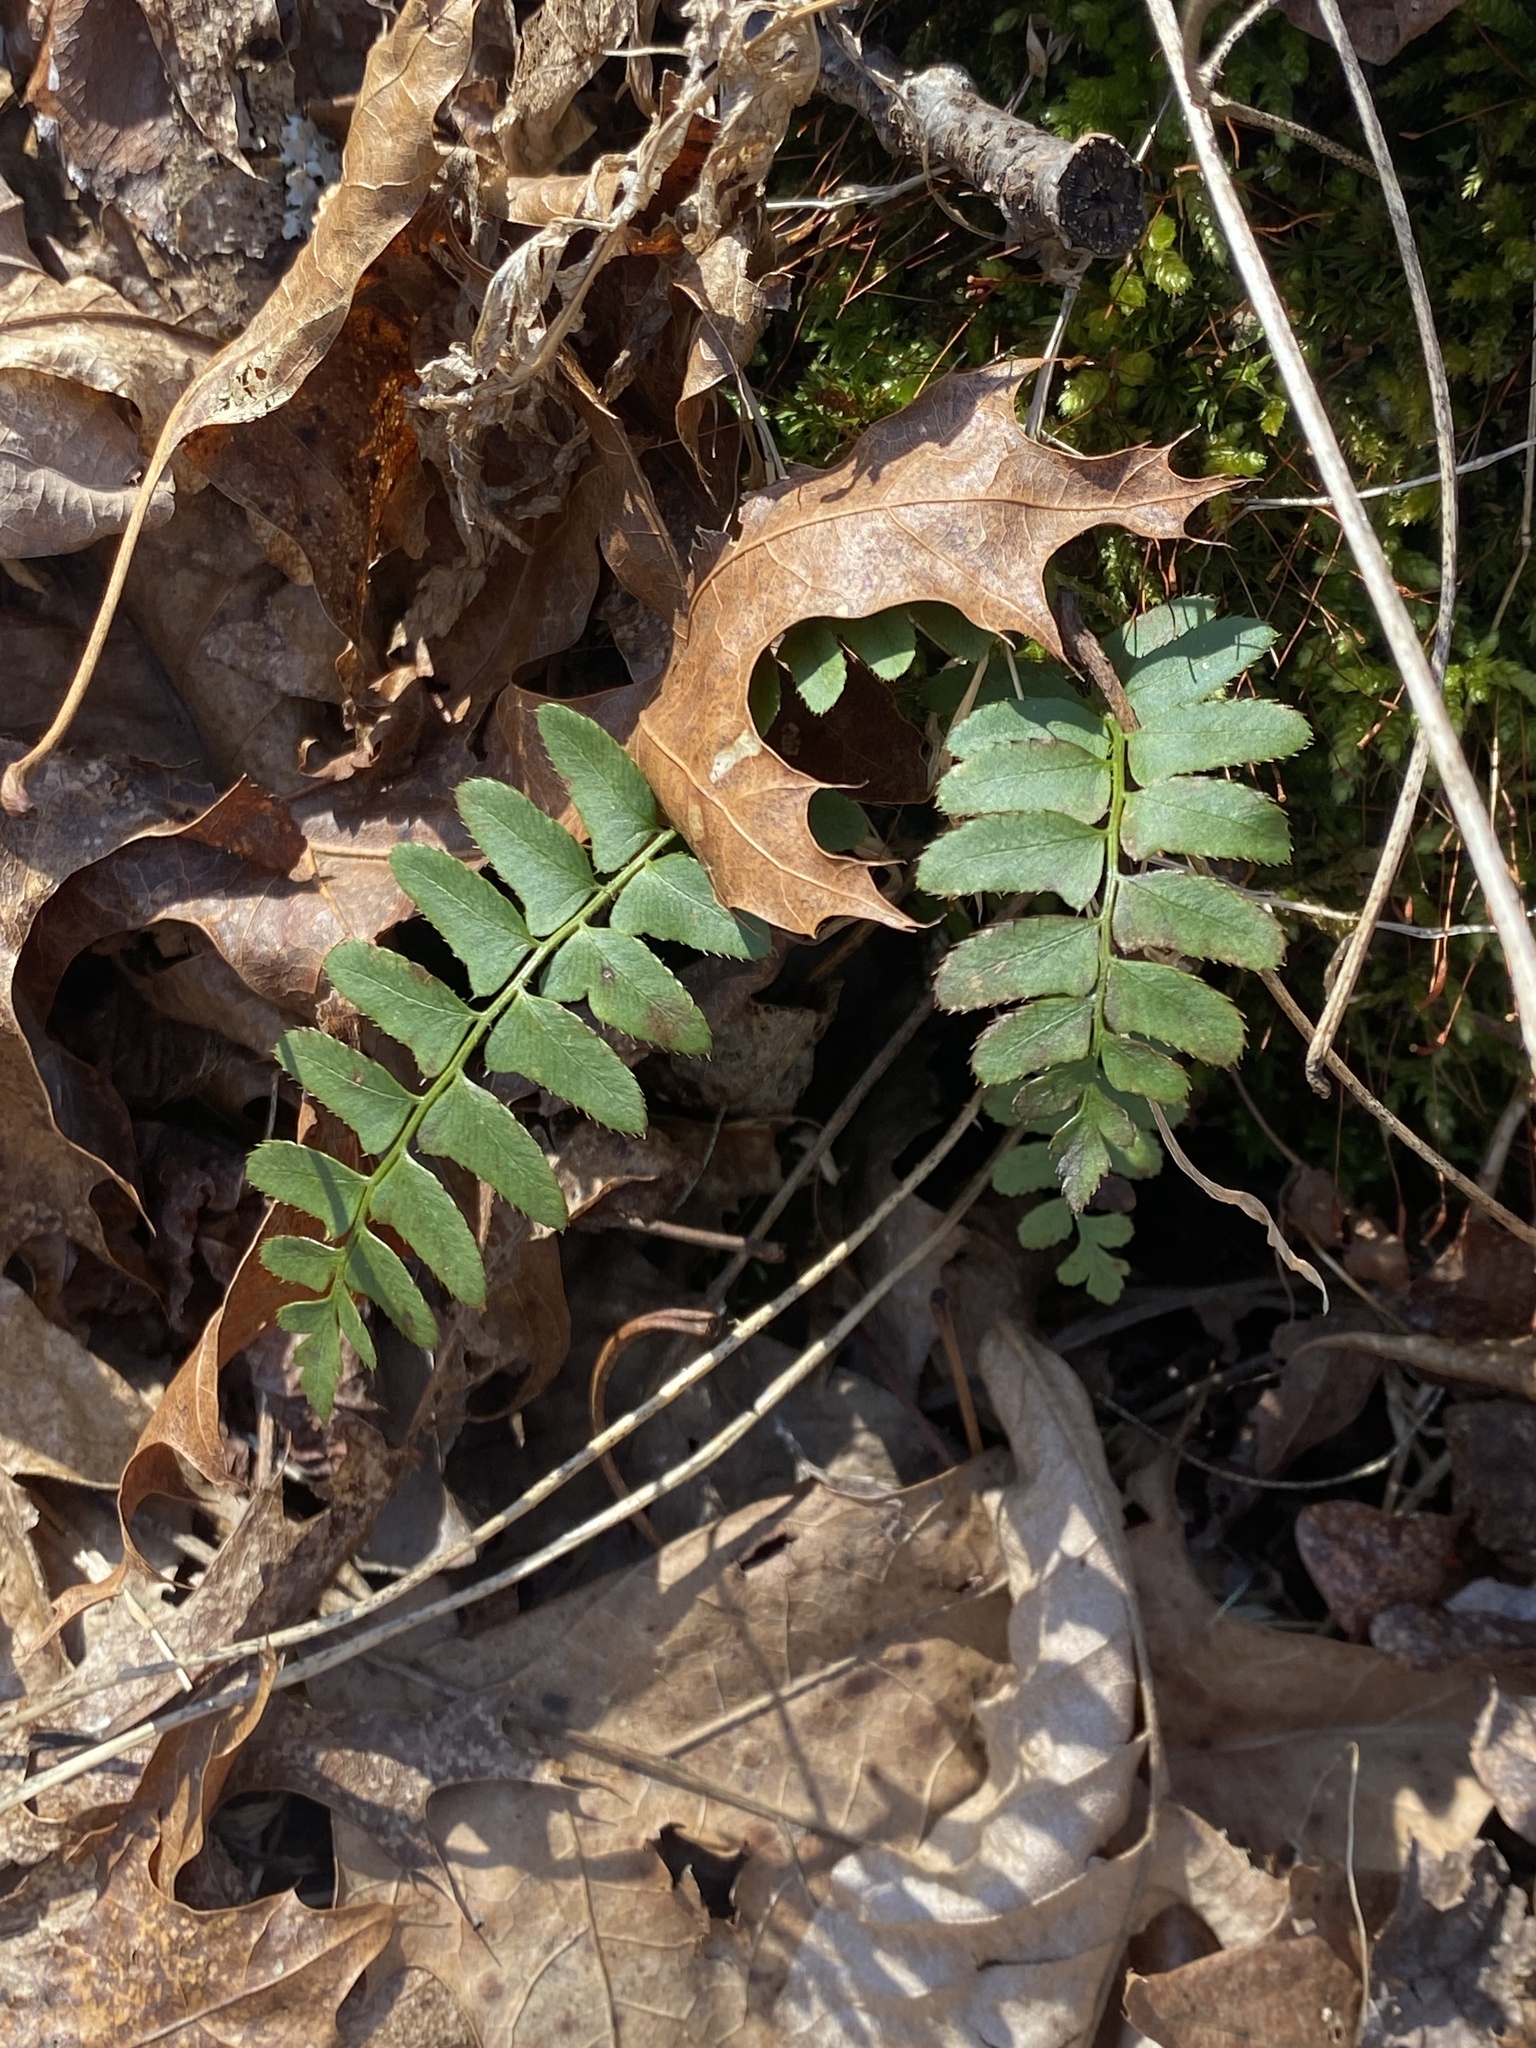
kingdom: Plantae
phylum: Tracheophyta
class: Polypodiopsida
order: Polypodiales
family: Dryopteridaceae
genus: Polystichum
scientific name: Polystichum acrostichoides
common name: Christmas fern
